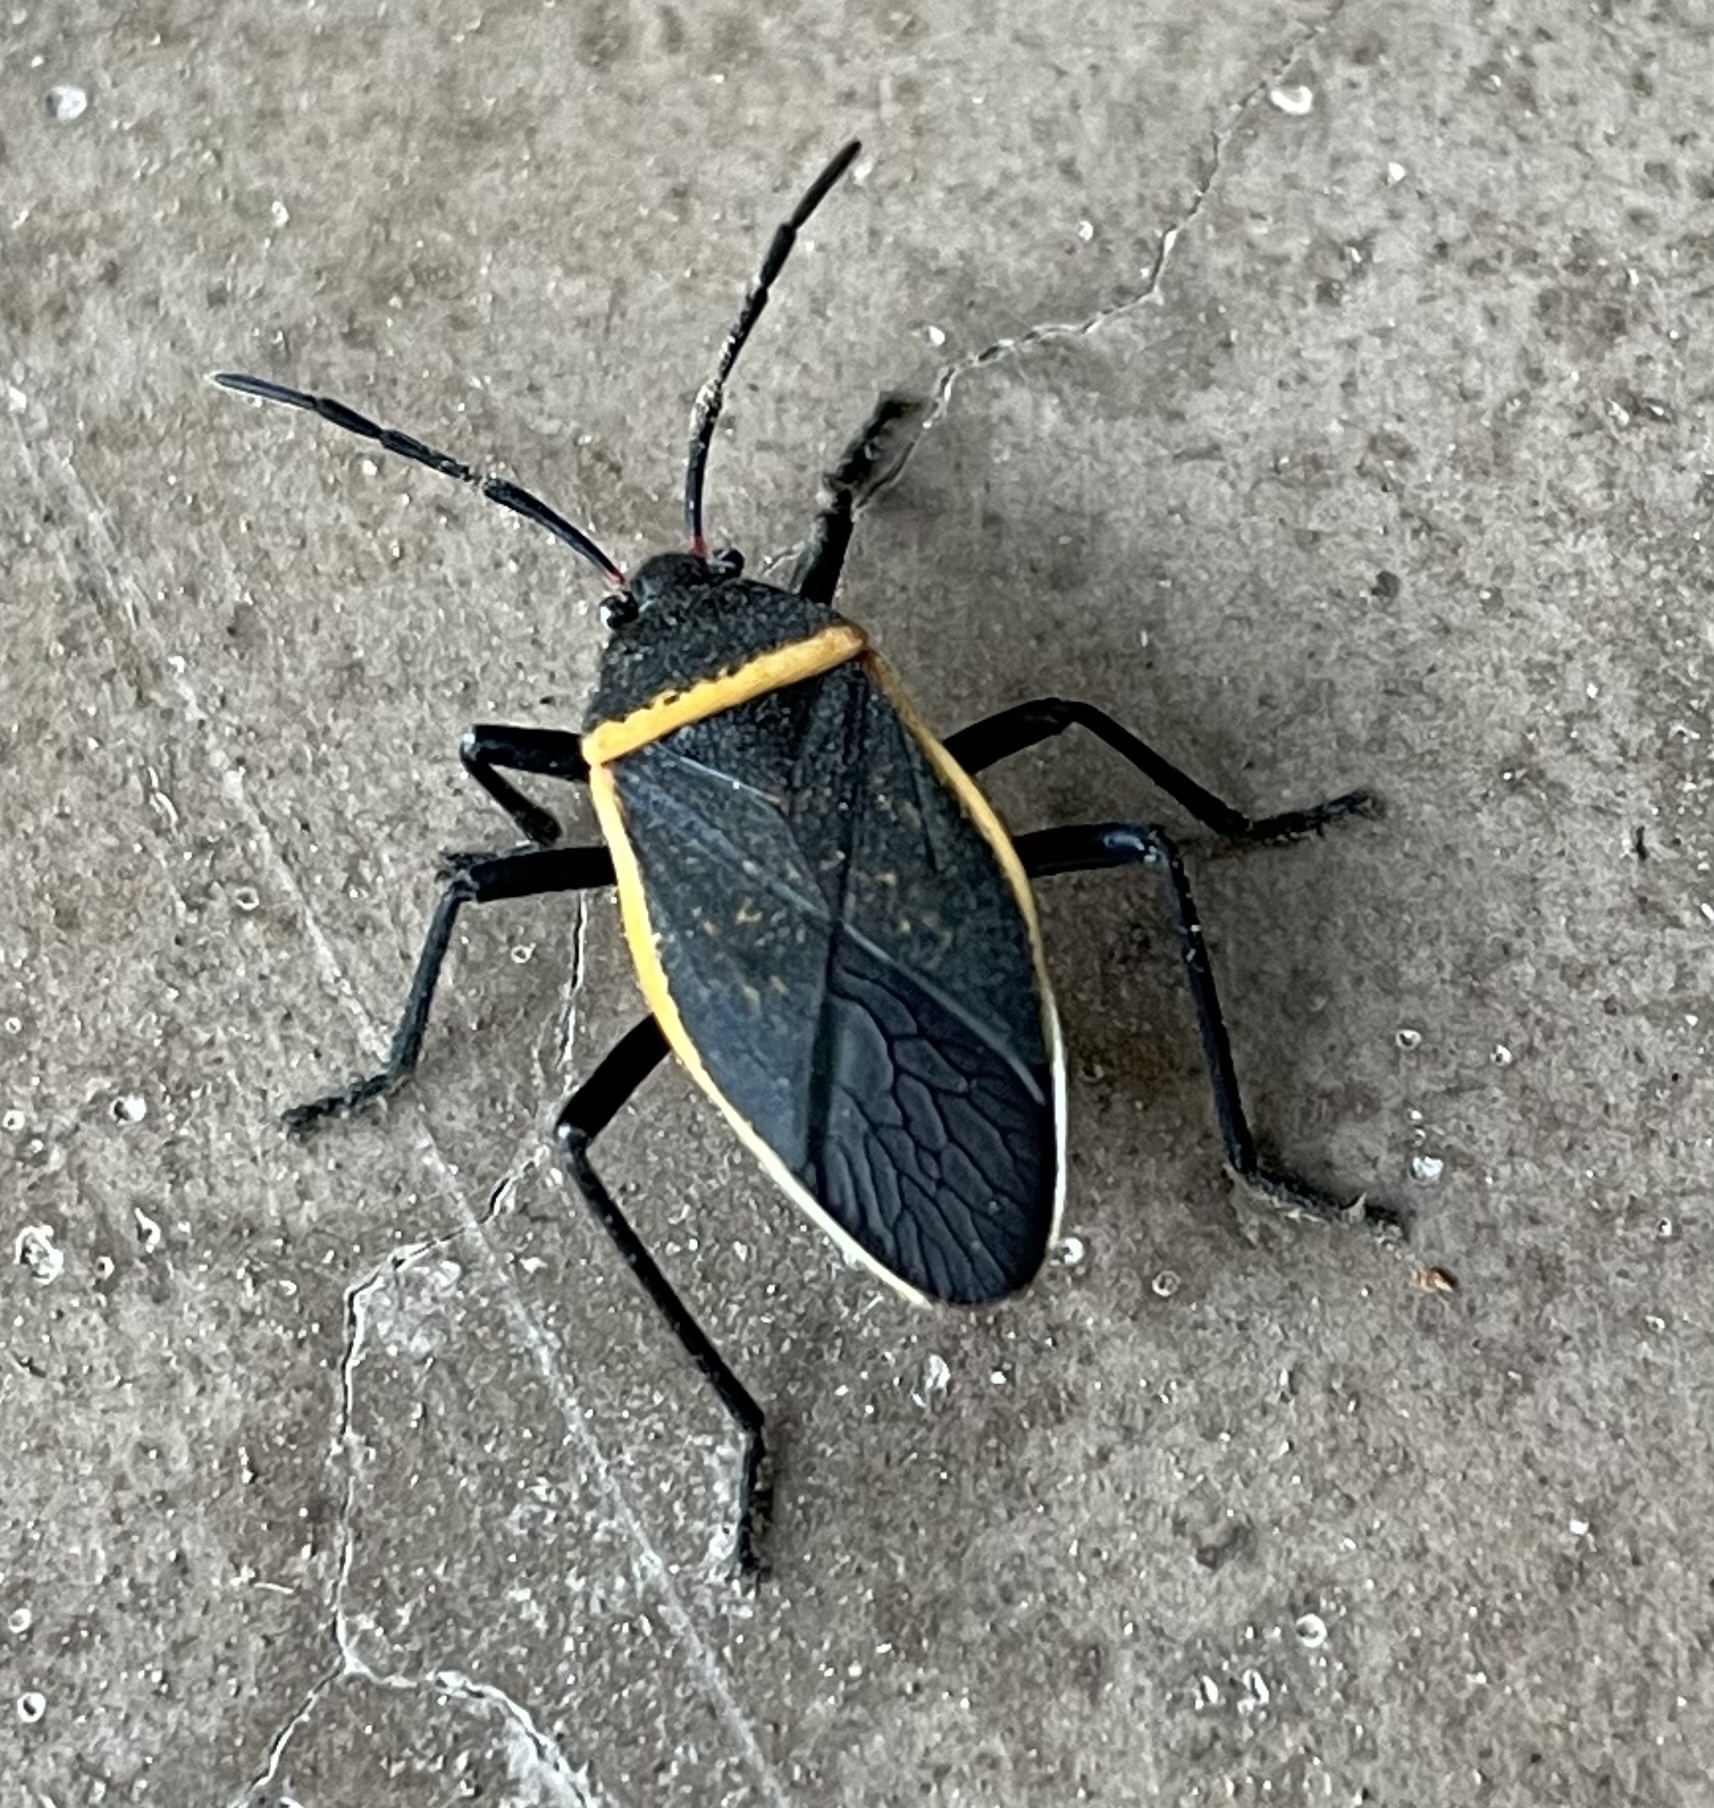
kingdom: Animalia
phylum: Arthropoda
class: Insecta
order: Hemiptera
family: Largidae
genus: Largus
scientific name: Largus californicus
